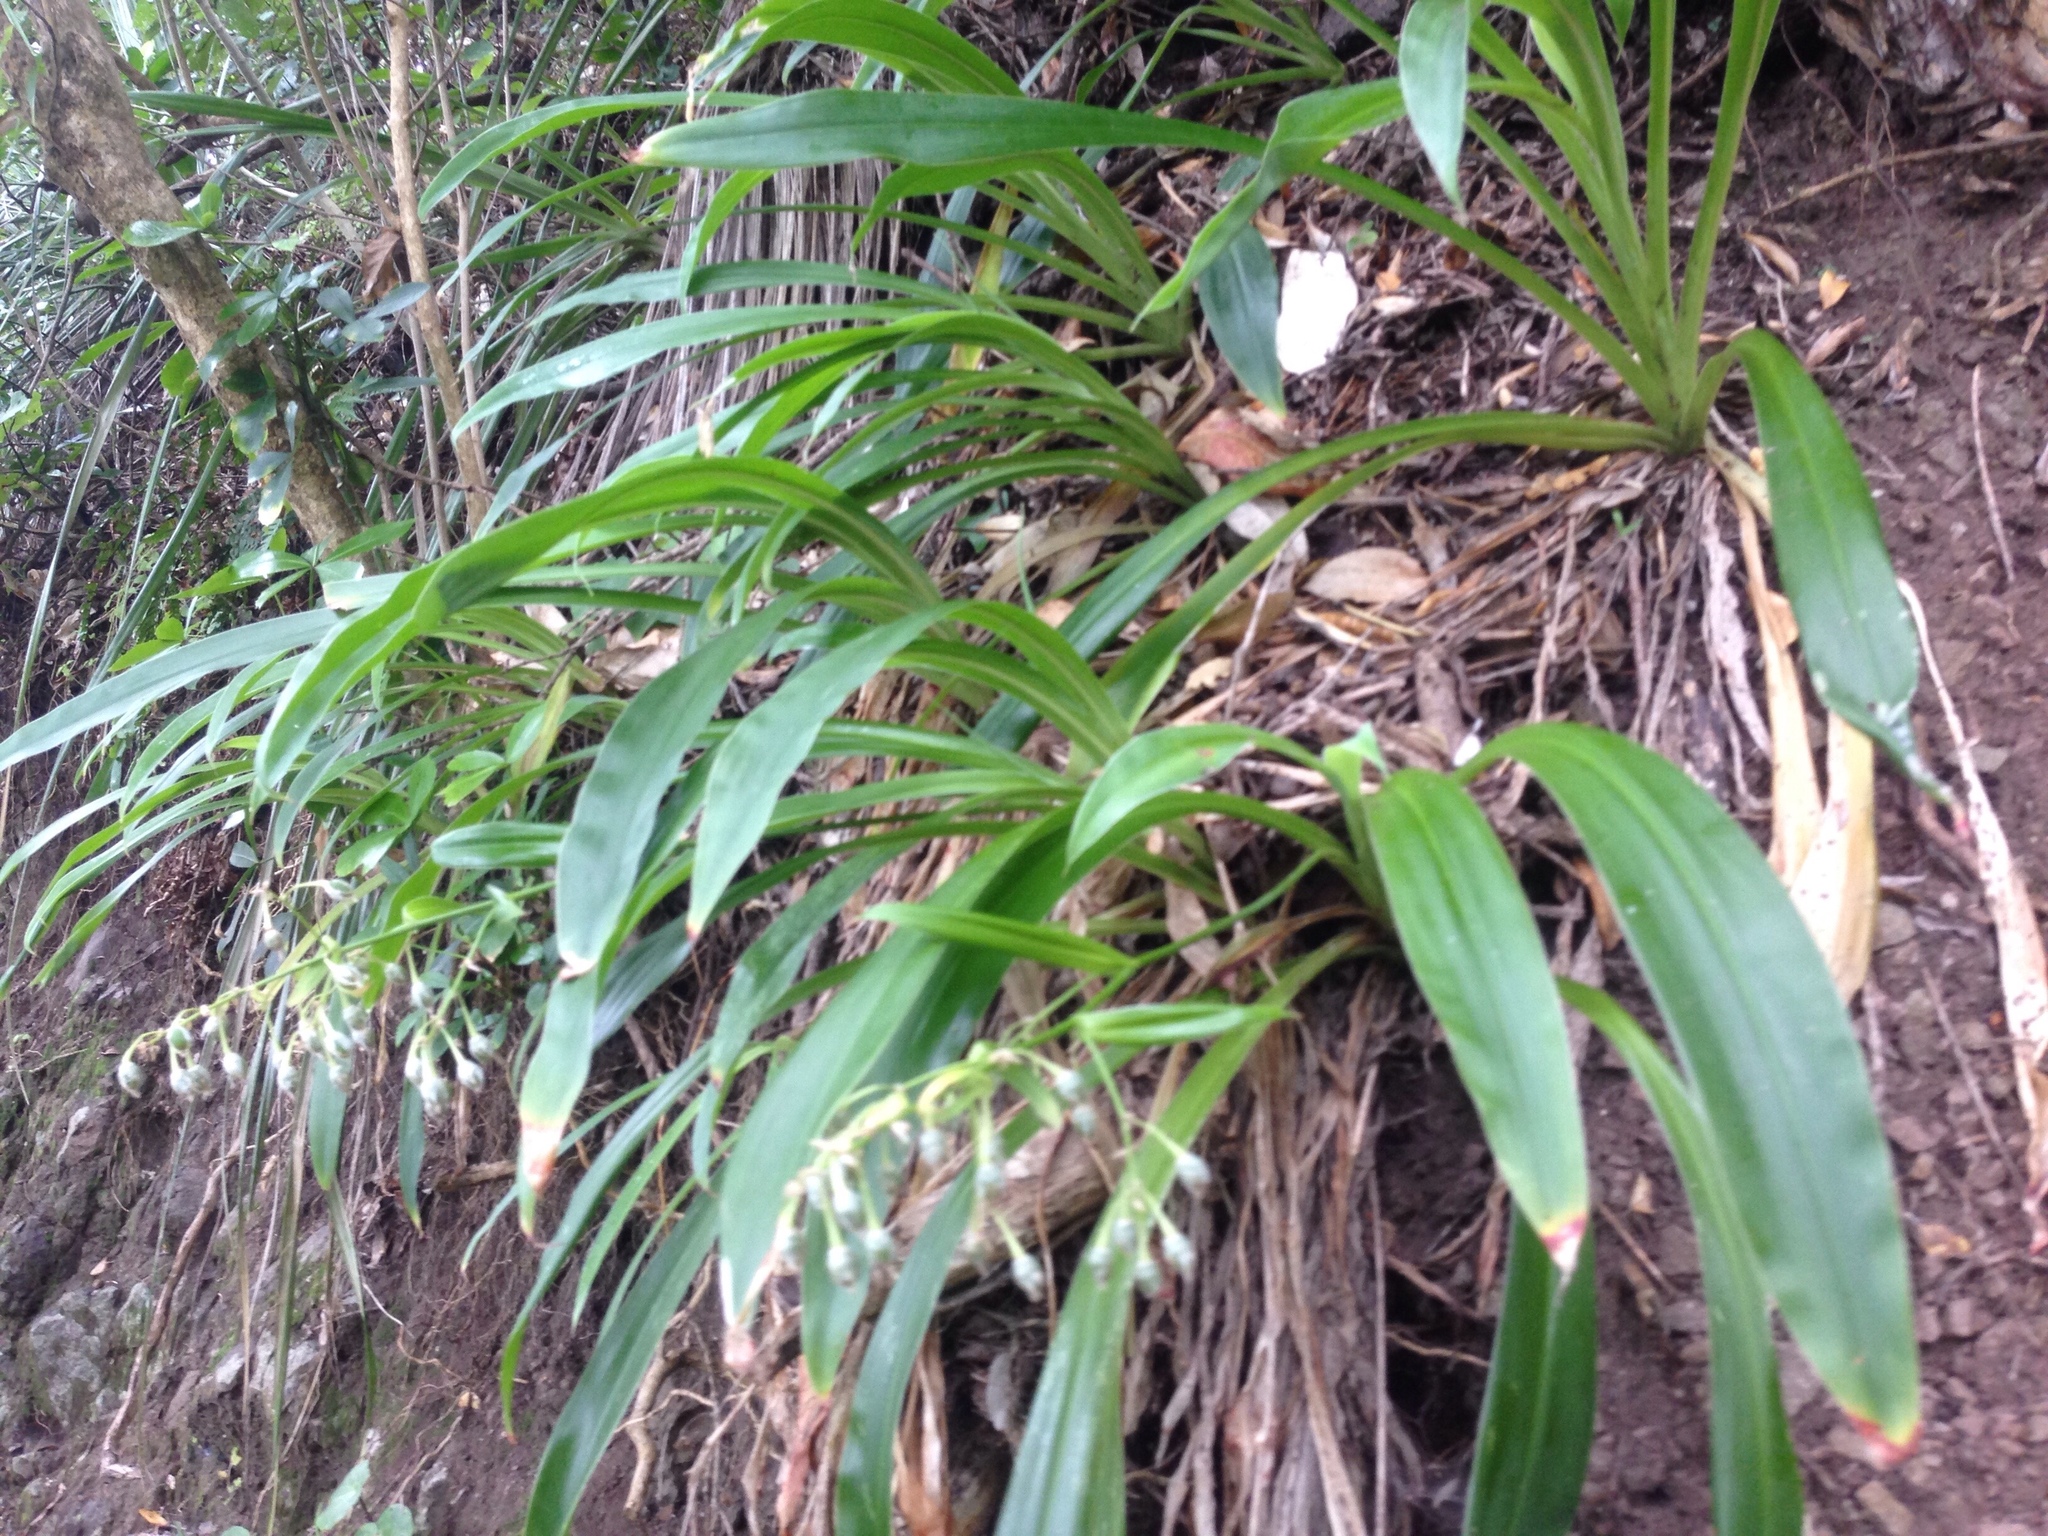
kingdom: Plantae
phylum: Tracheophyta
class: Liliopsida
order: Asparagales
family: Asparagaceae
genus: Arthropodium
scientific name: Arthropodium cirratum
